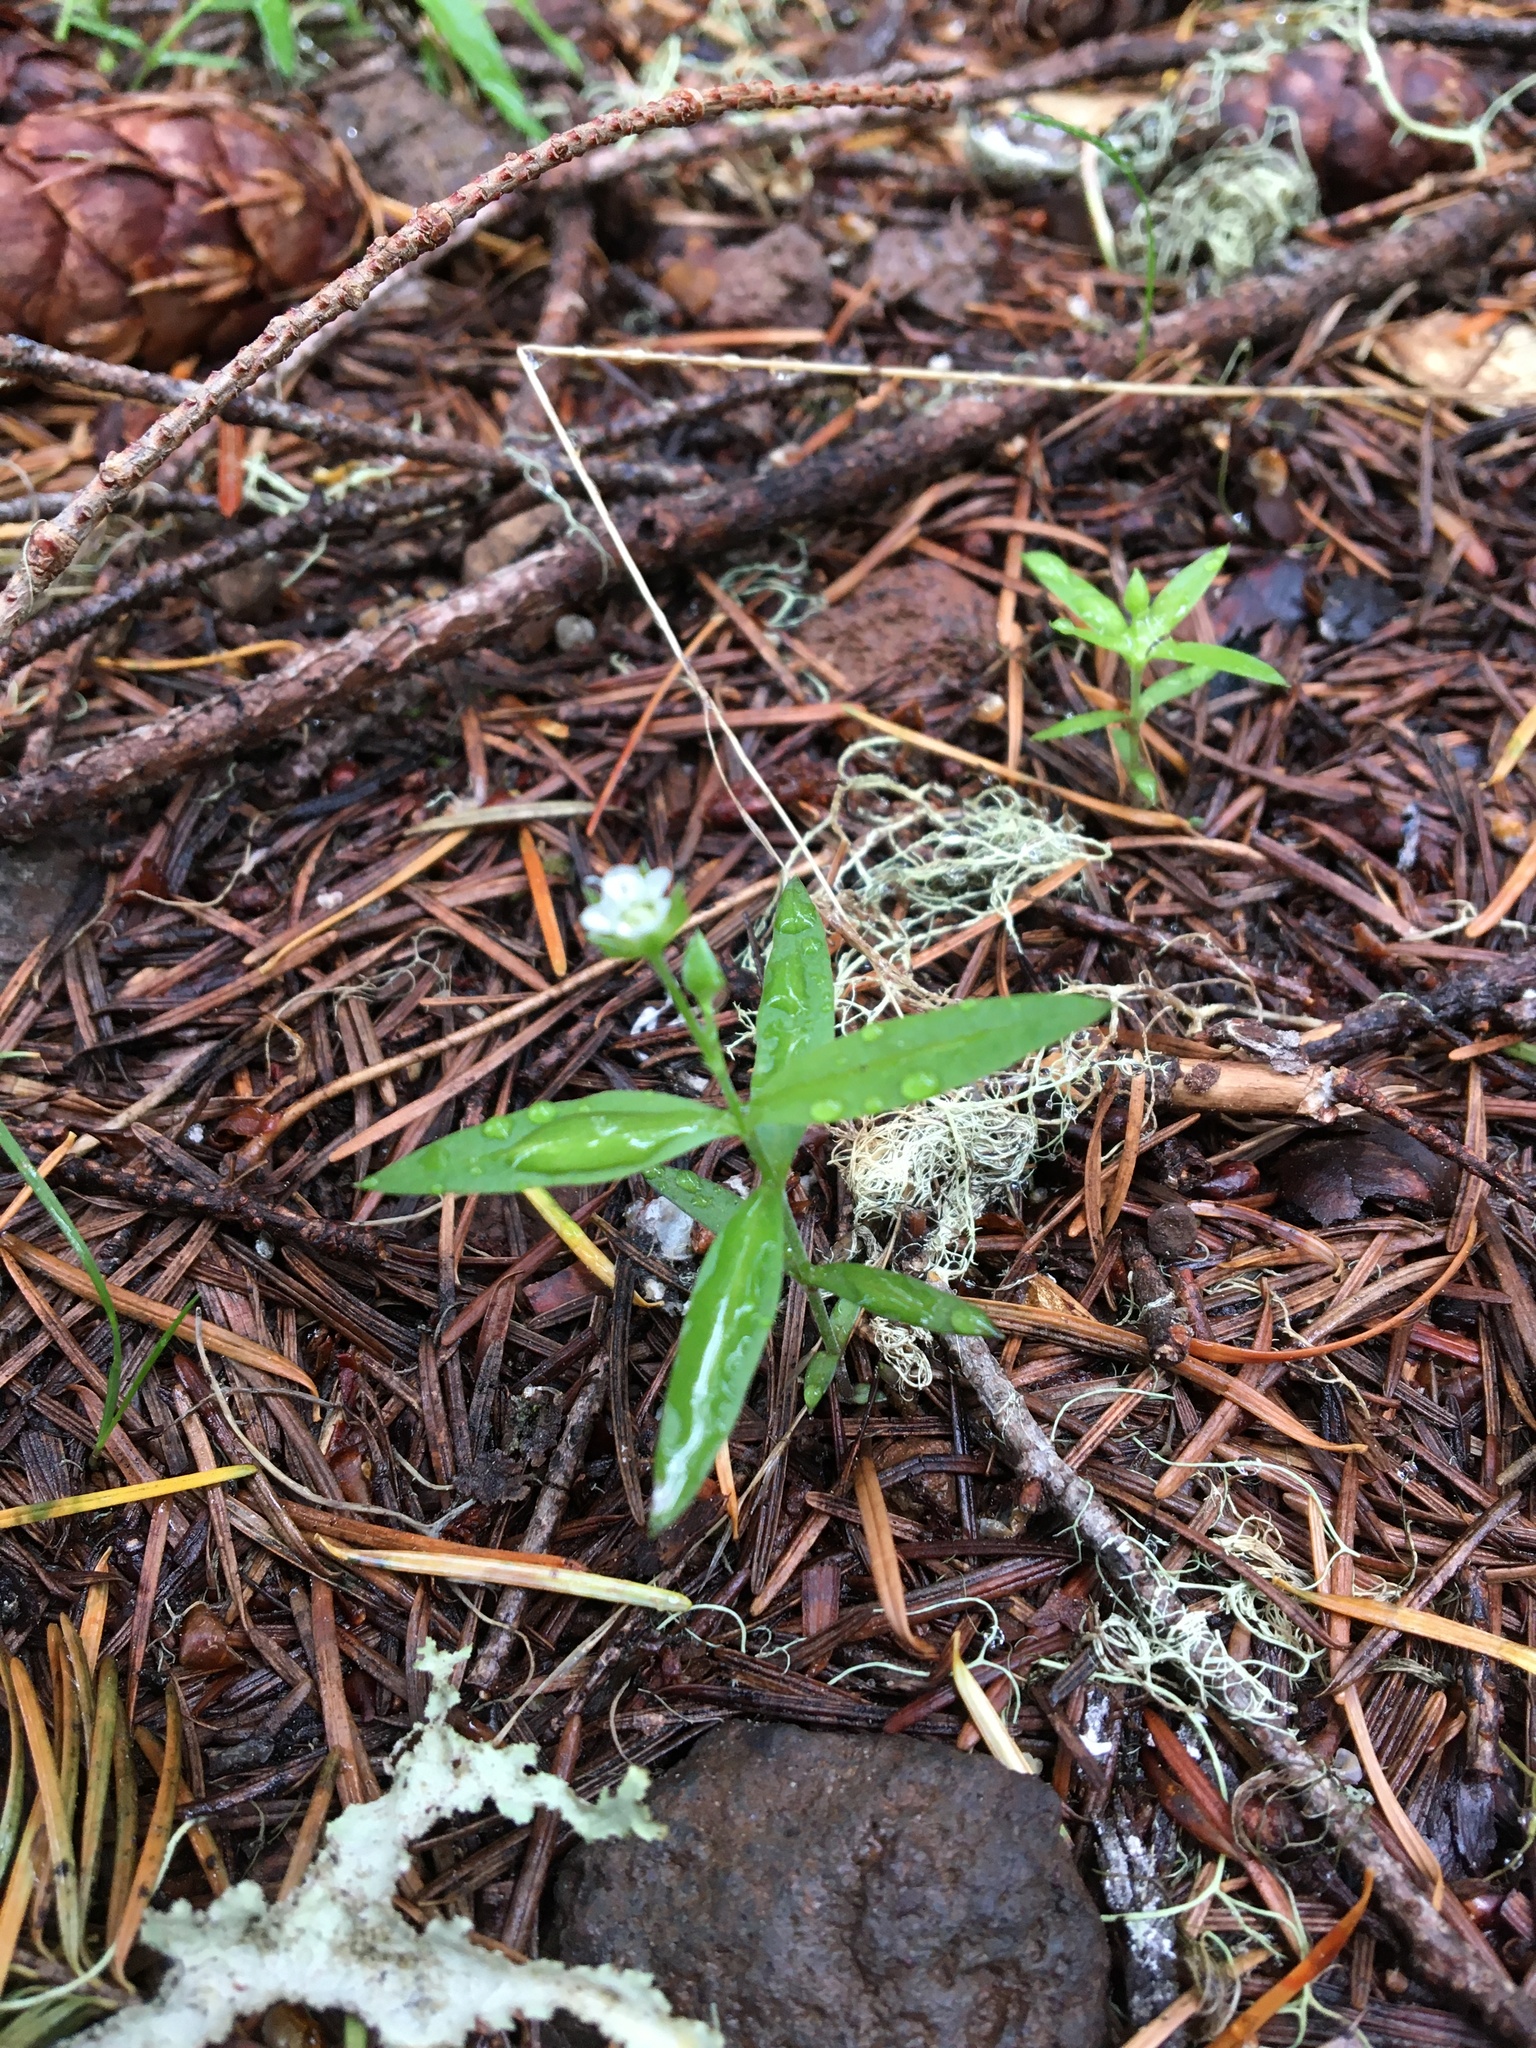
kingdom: Plantae
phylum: Tracheophyta
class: Magnoliopsida
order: Caryophyllales
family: Caryophyllaceae
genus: Moehringia
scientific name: Moehringia macrophylla
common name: Big-leaf sandwort
